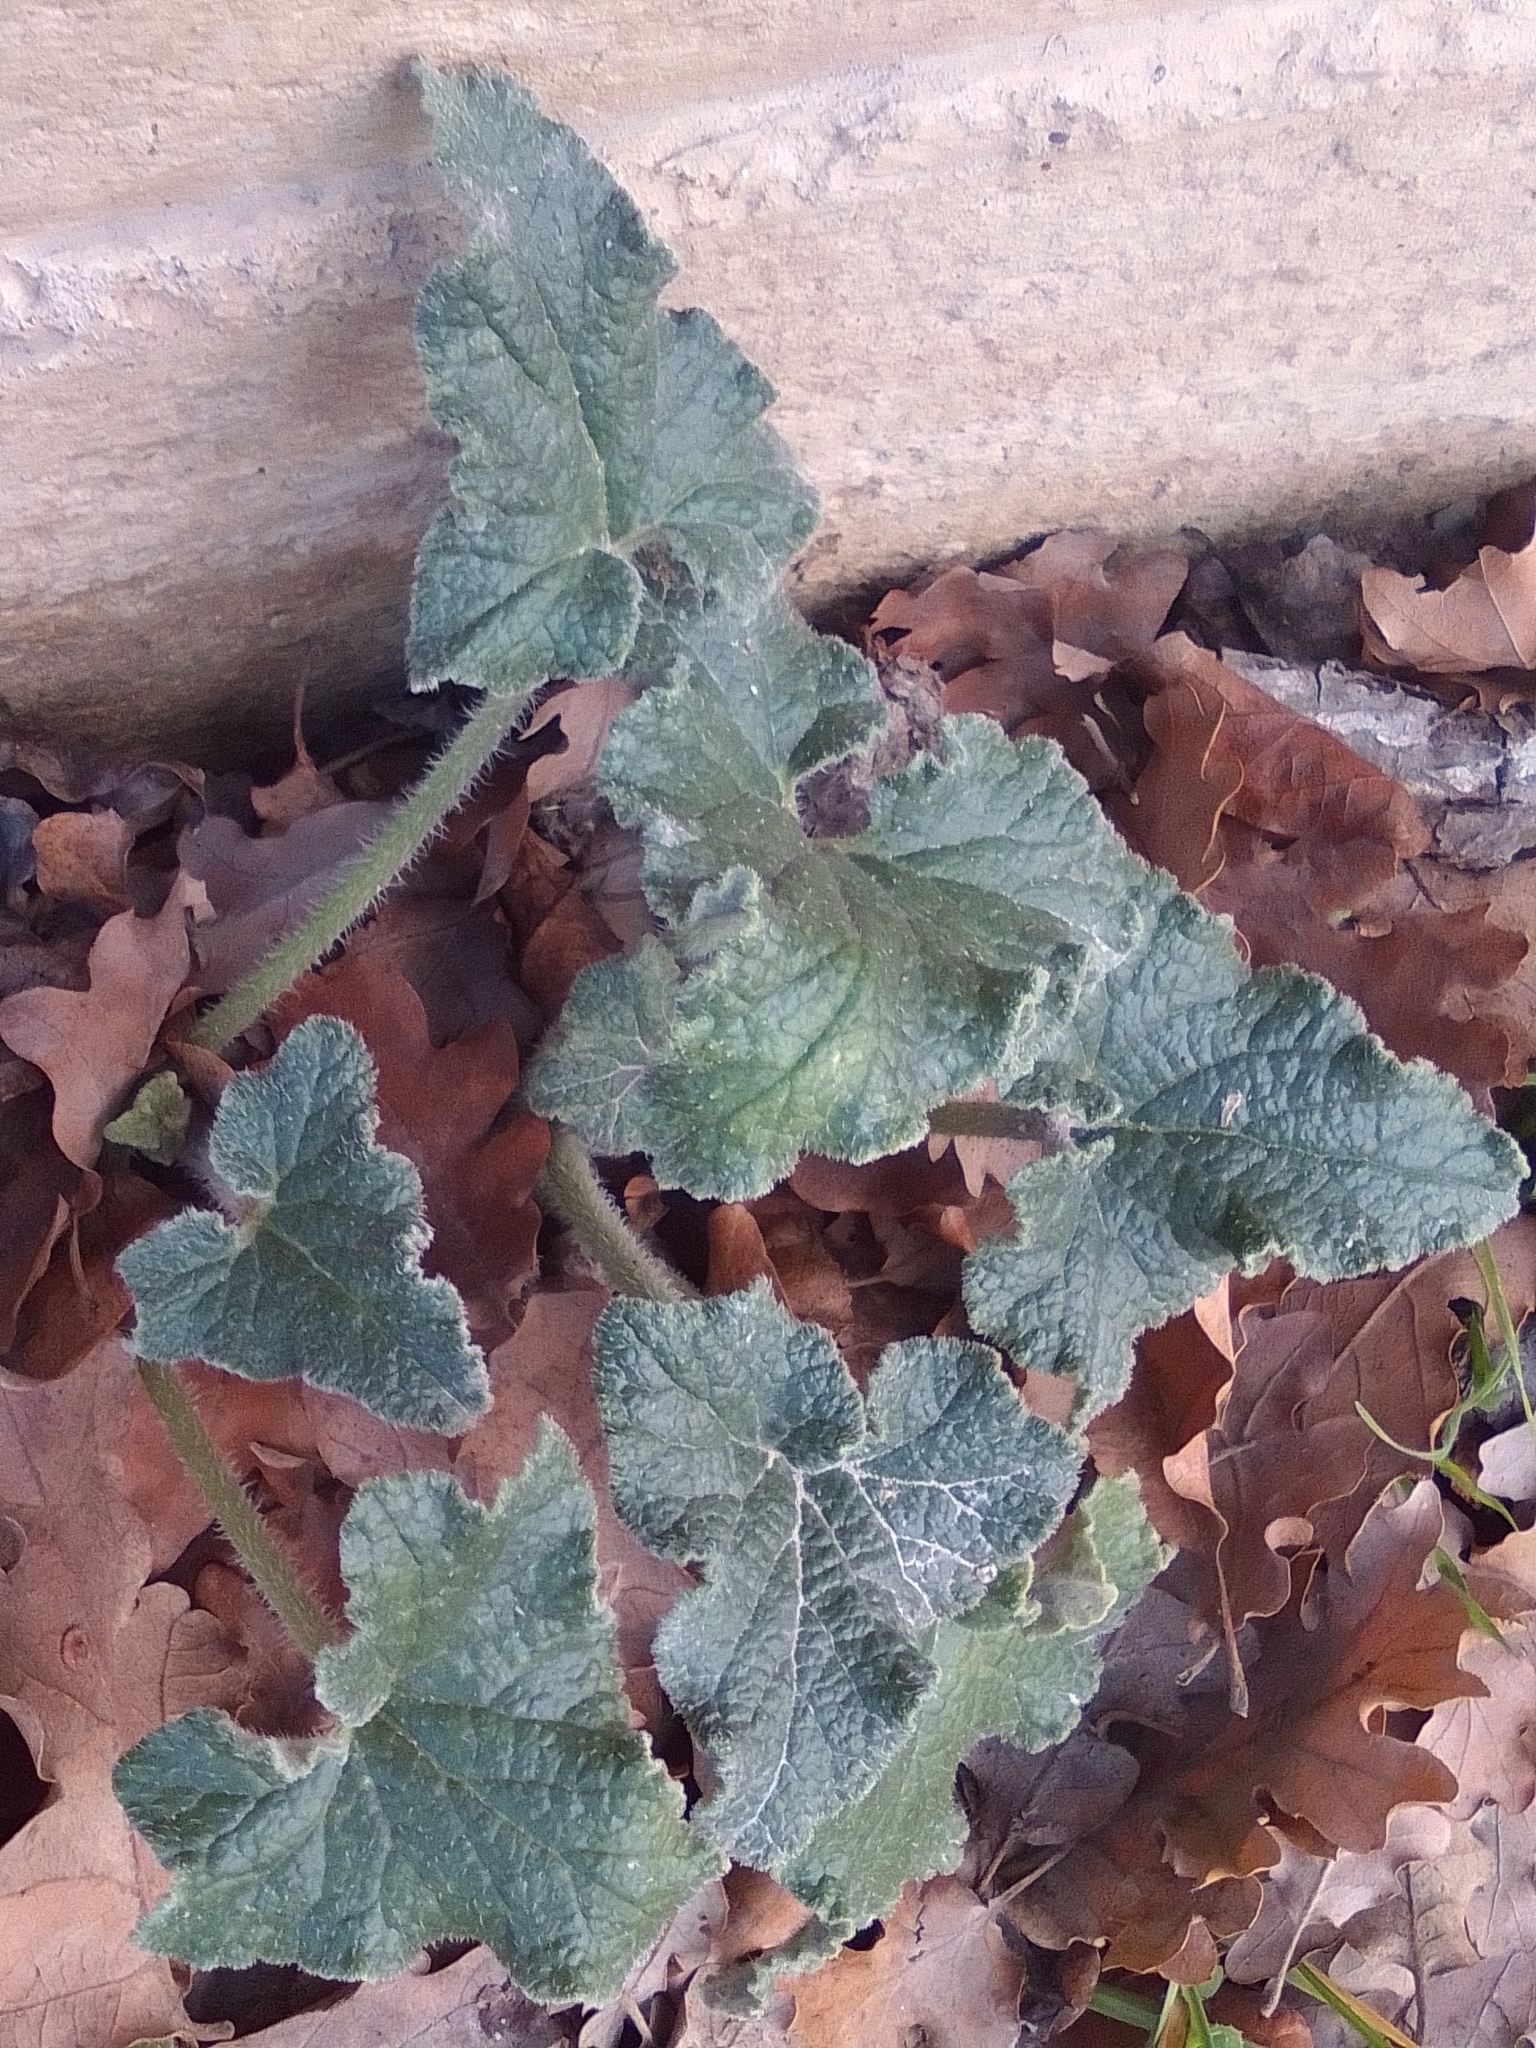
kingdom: Plantae
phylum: Tracheophyta
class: Magnoliopsida
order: Cucurbitales
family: Cucurbitaceae
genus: Ecballium
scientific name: Ecballium elaterium
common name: Squirting cucumber
